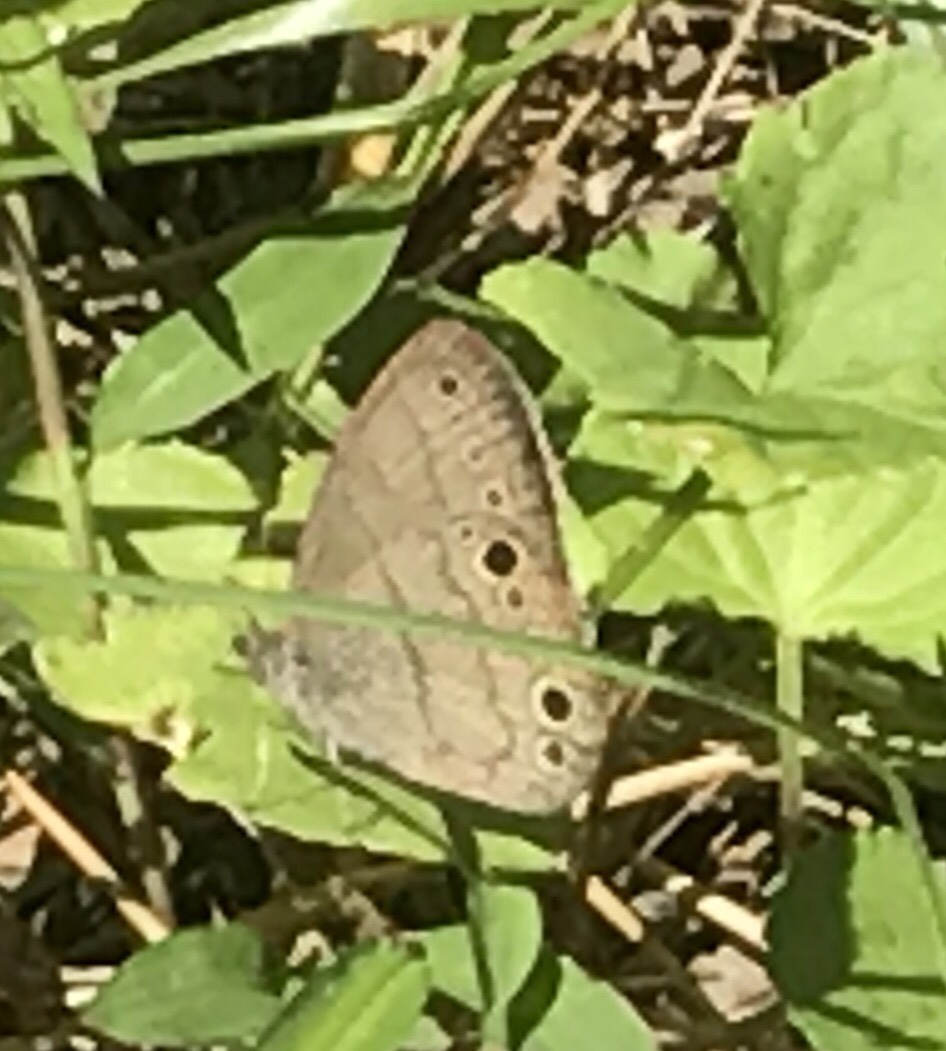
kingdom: Animalia
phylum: Arthropoda
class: Insecta
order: Lepidoptera
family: Nymphalidae
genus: Hermeuptychia
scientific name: Hermeuptychia hermes
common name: Hermes satyr
